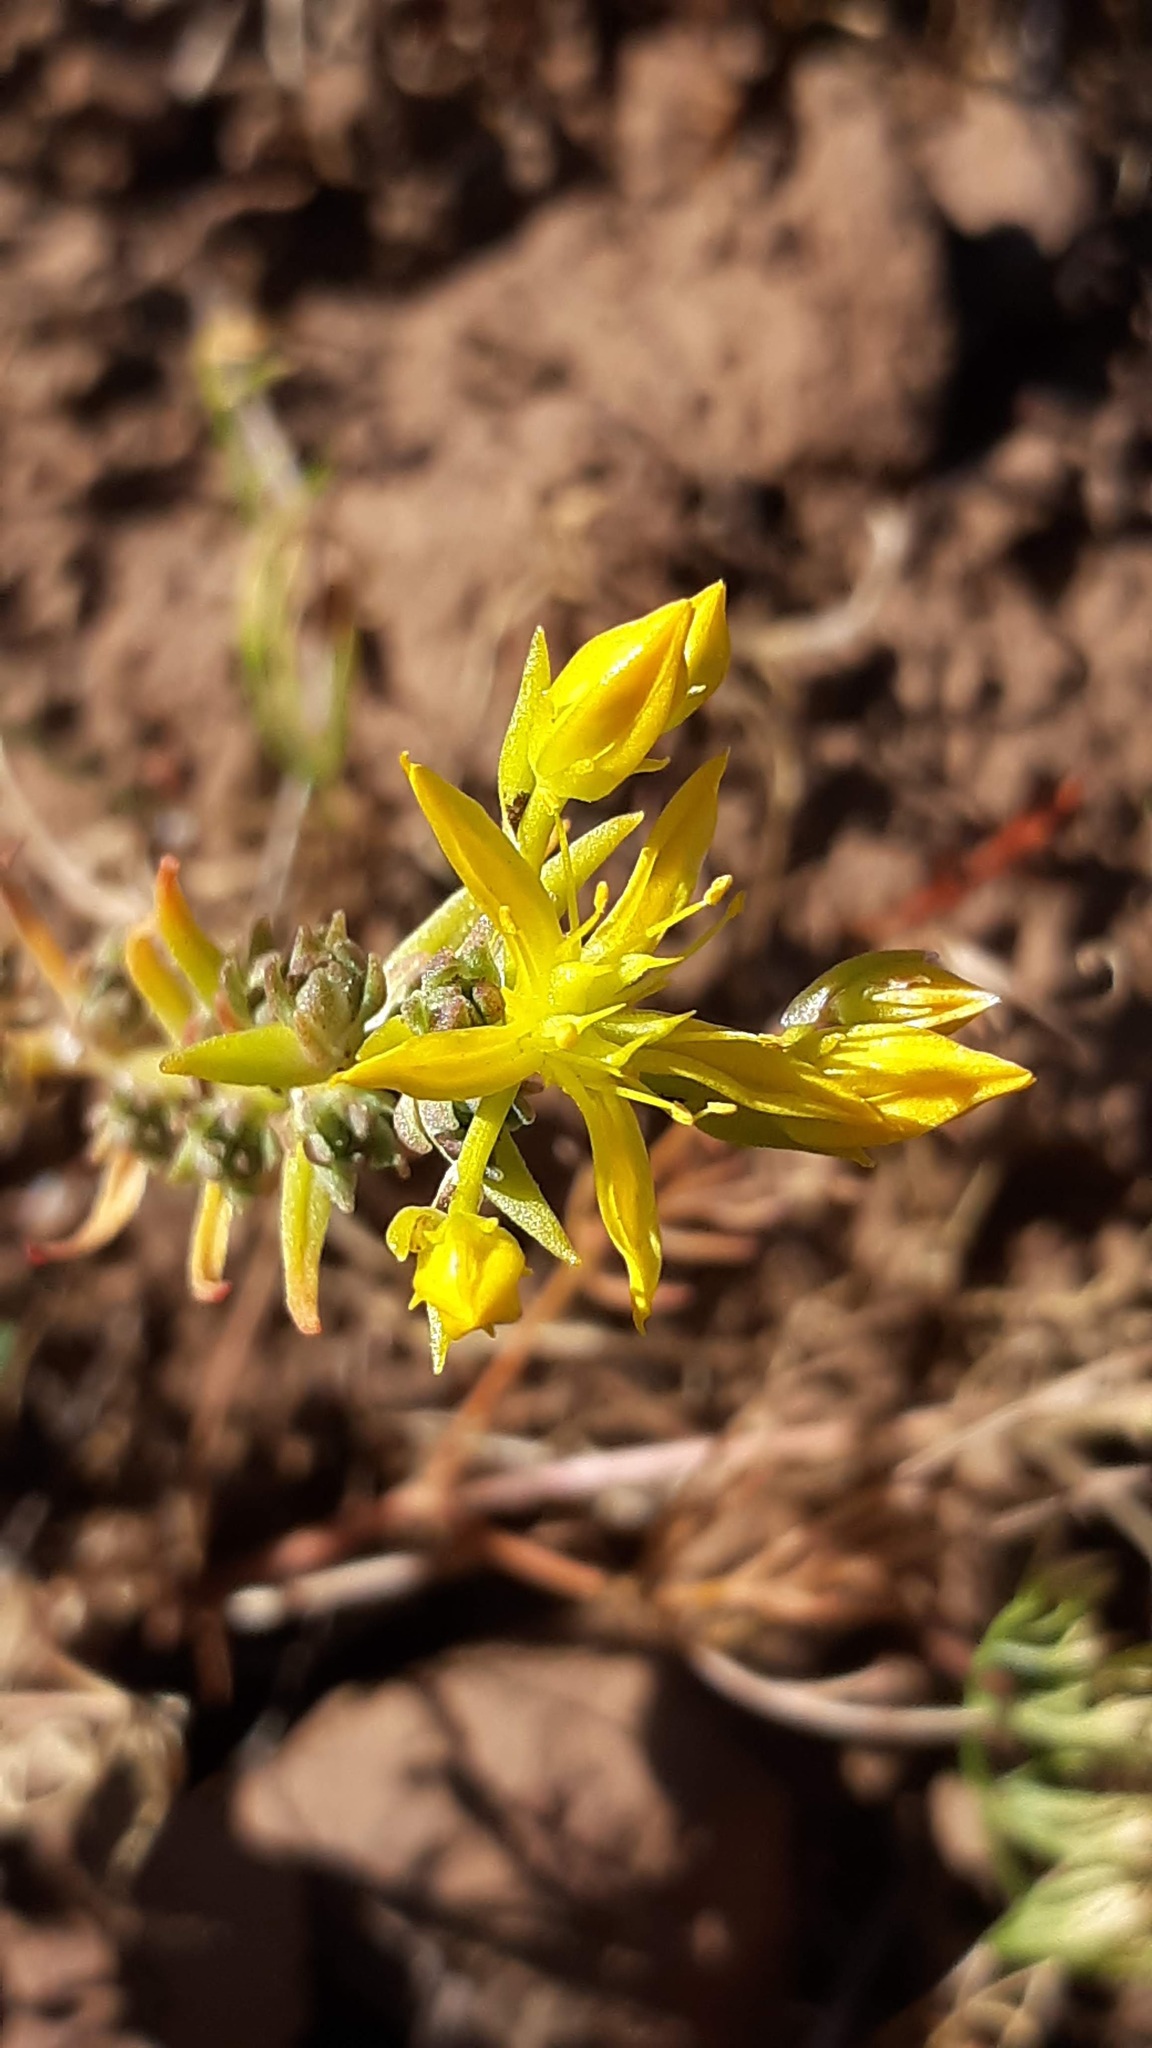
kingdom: Plantae
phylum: Tracheophyta
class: Magnoliopsida
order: Saxifragales
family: Crassulaceae
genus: Sedum
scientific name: Sedum stenopetalum
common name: Narrow-petaled stonecrop
